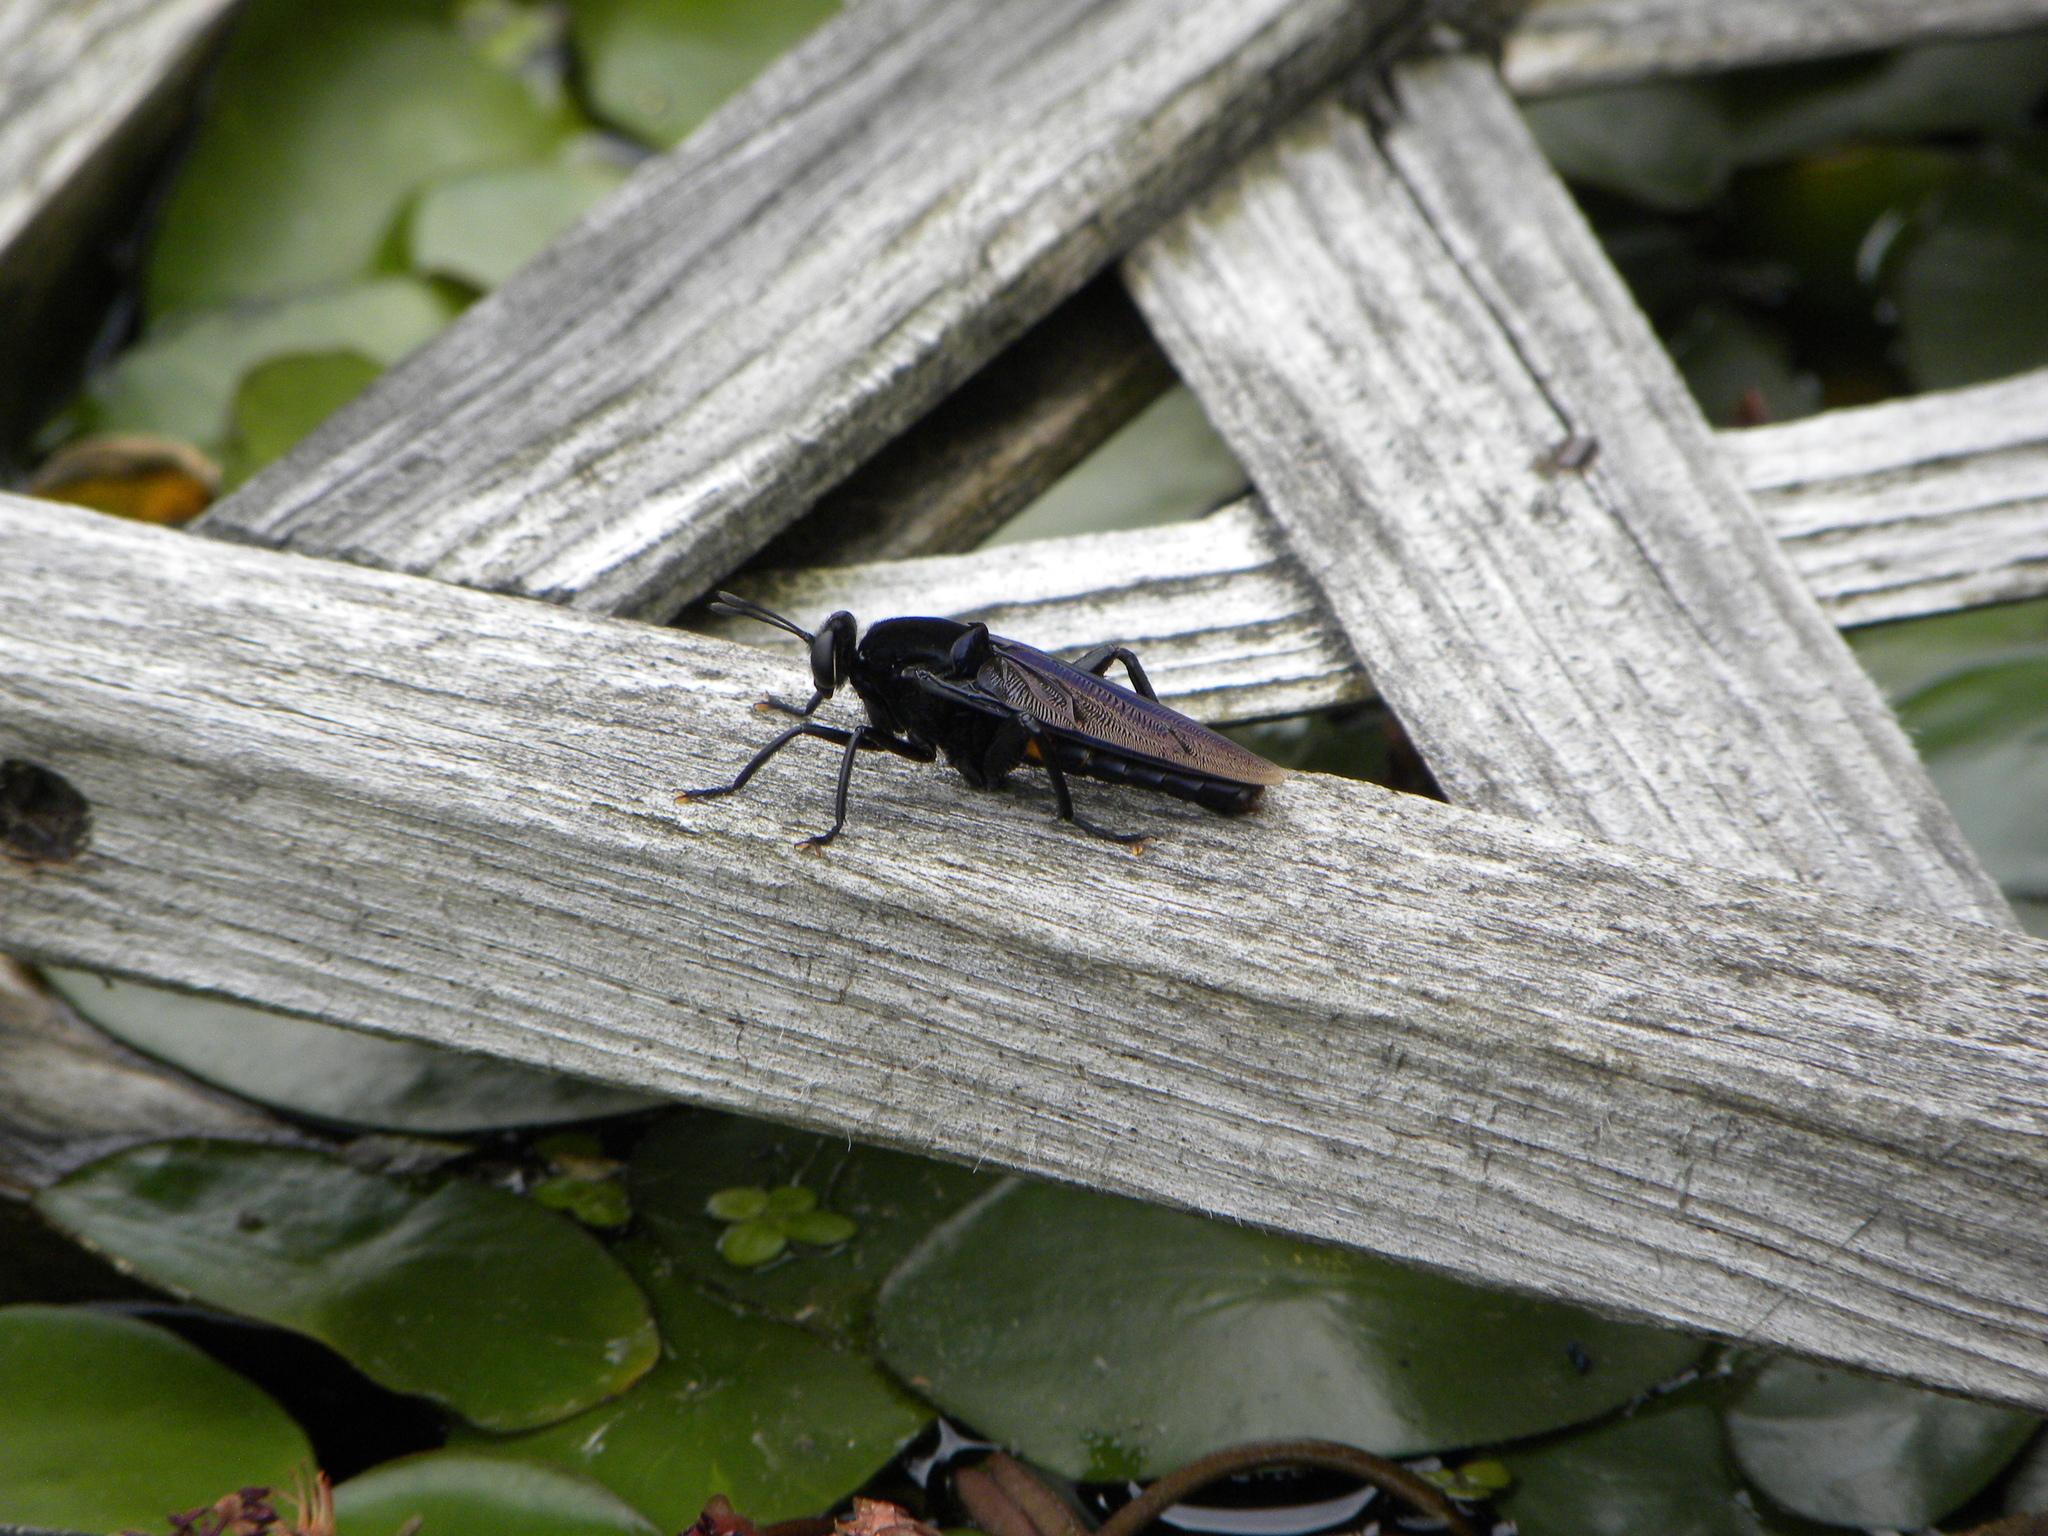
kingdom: Animalia
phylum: Arthropoda
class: Insecta
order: Diptera
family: Mydidae
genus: Mydas
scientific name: Mydas clavatus
